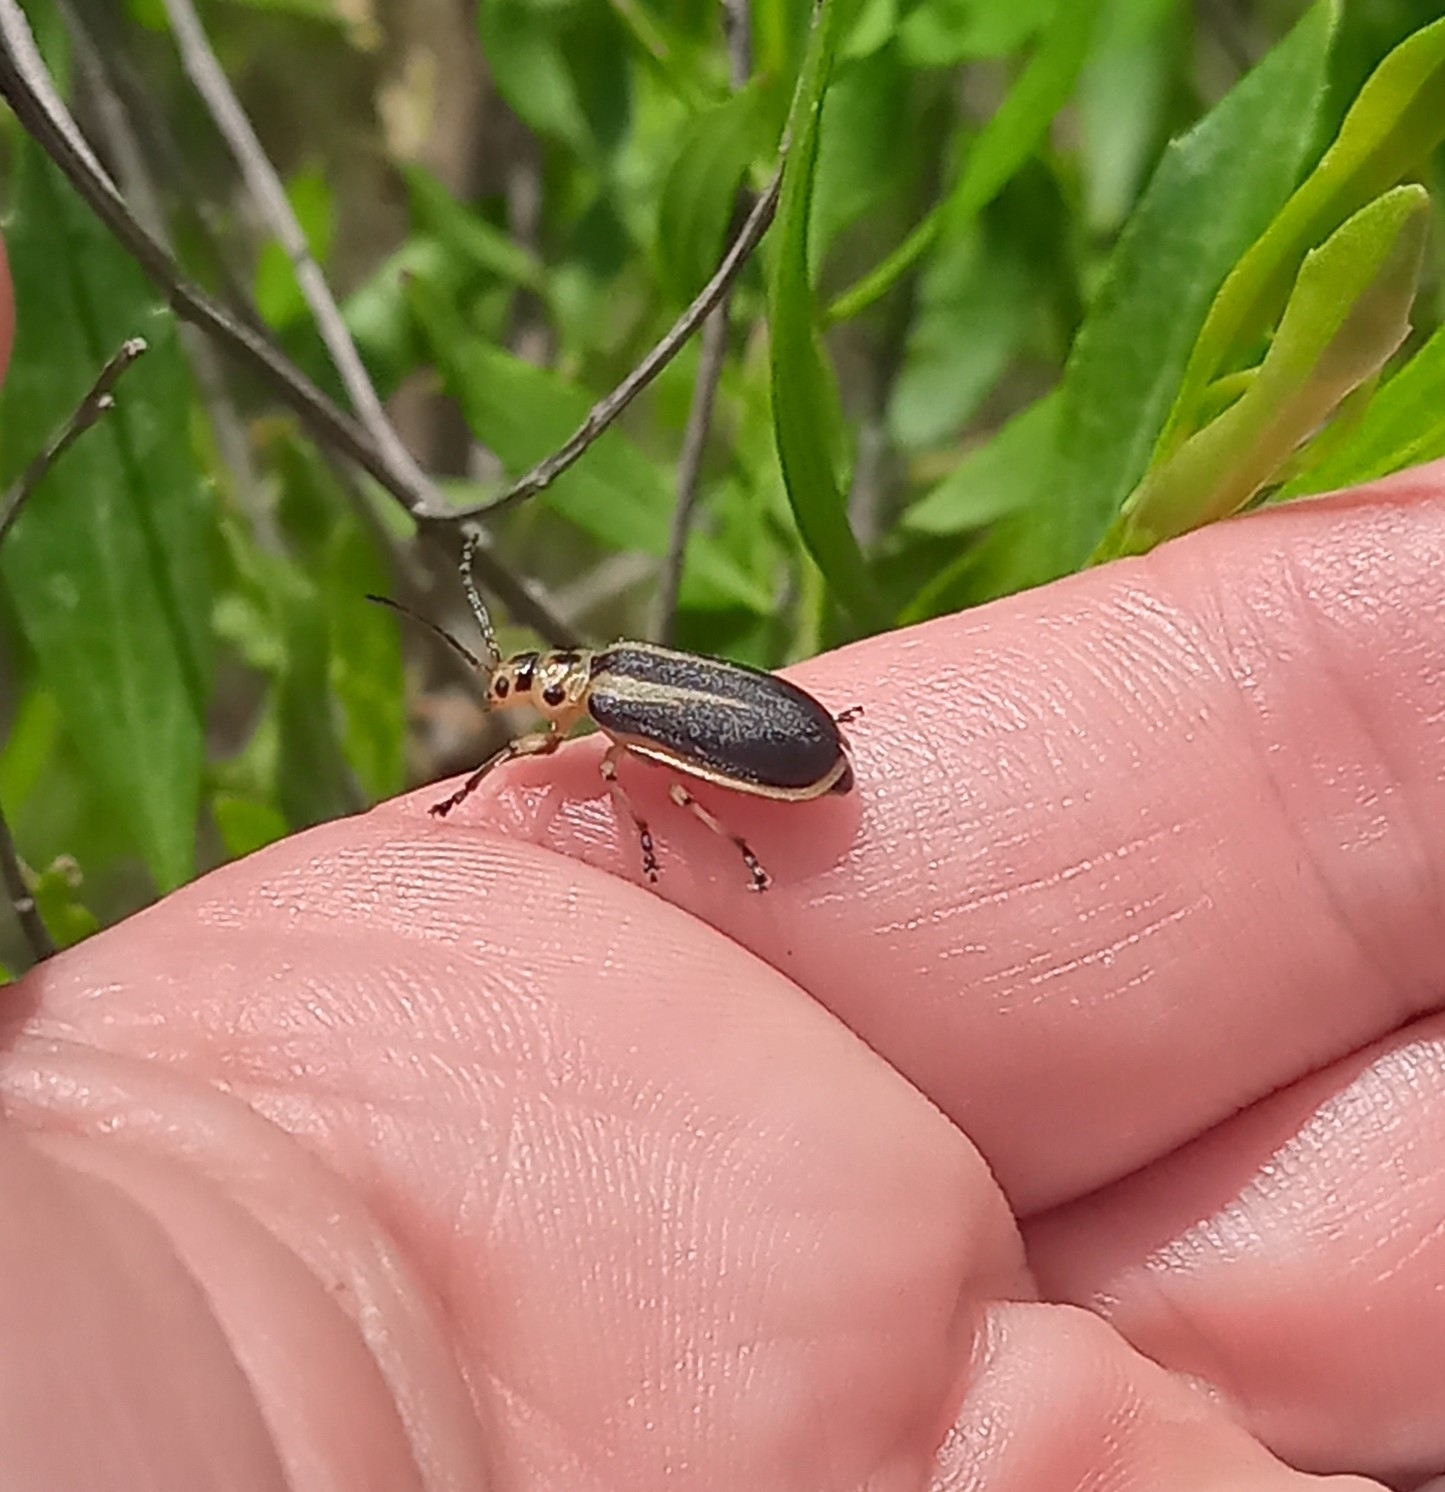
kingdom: Animalia
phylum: Arthropoda
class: Insecta
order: Coleoptera
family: Chrysomelidae
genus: Trirhabda
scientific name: Trirhabda bacharidis
